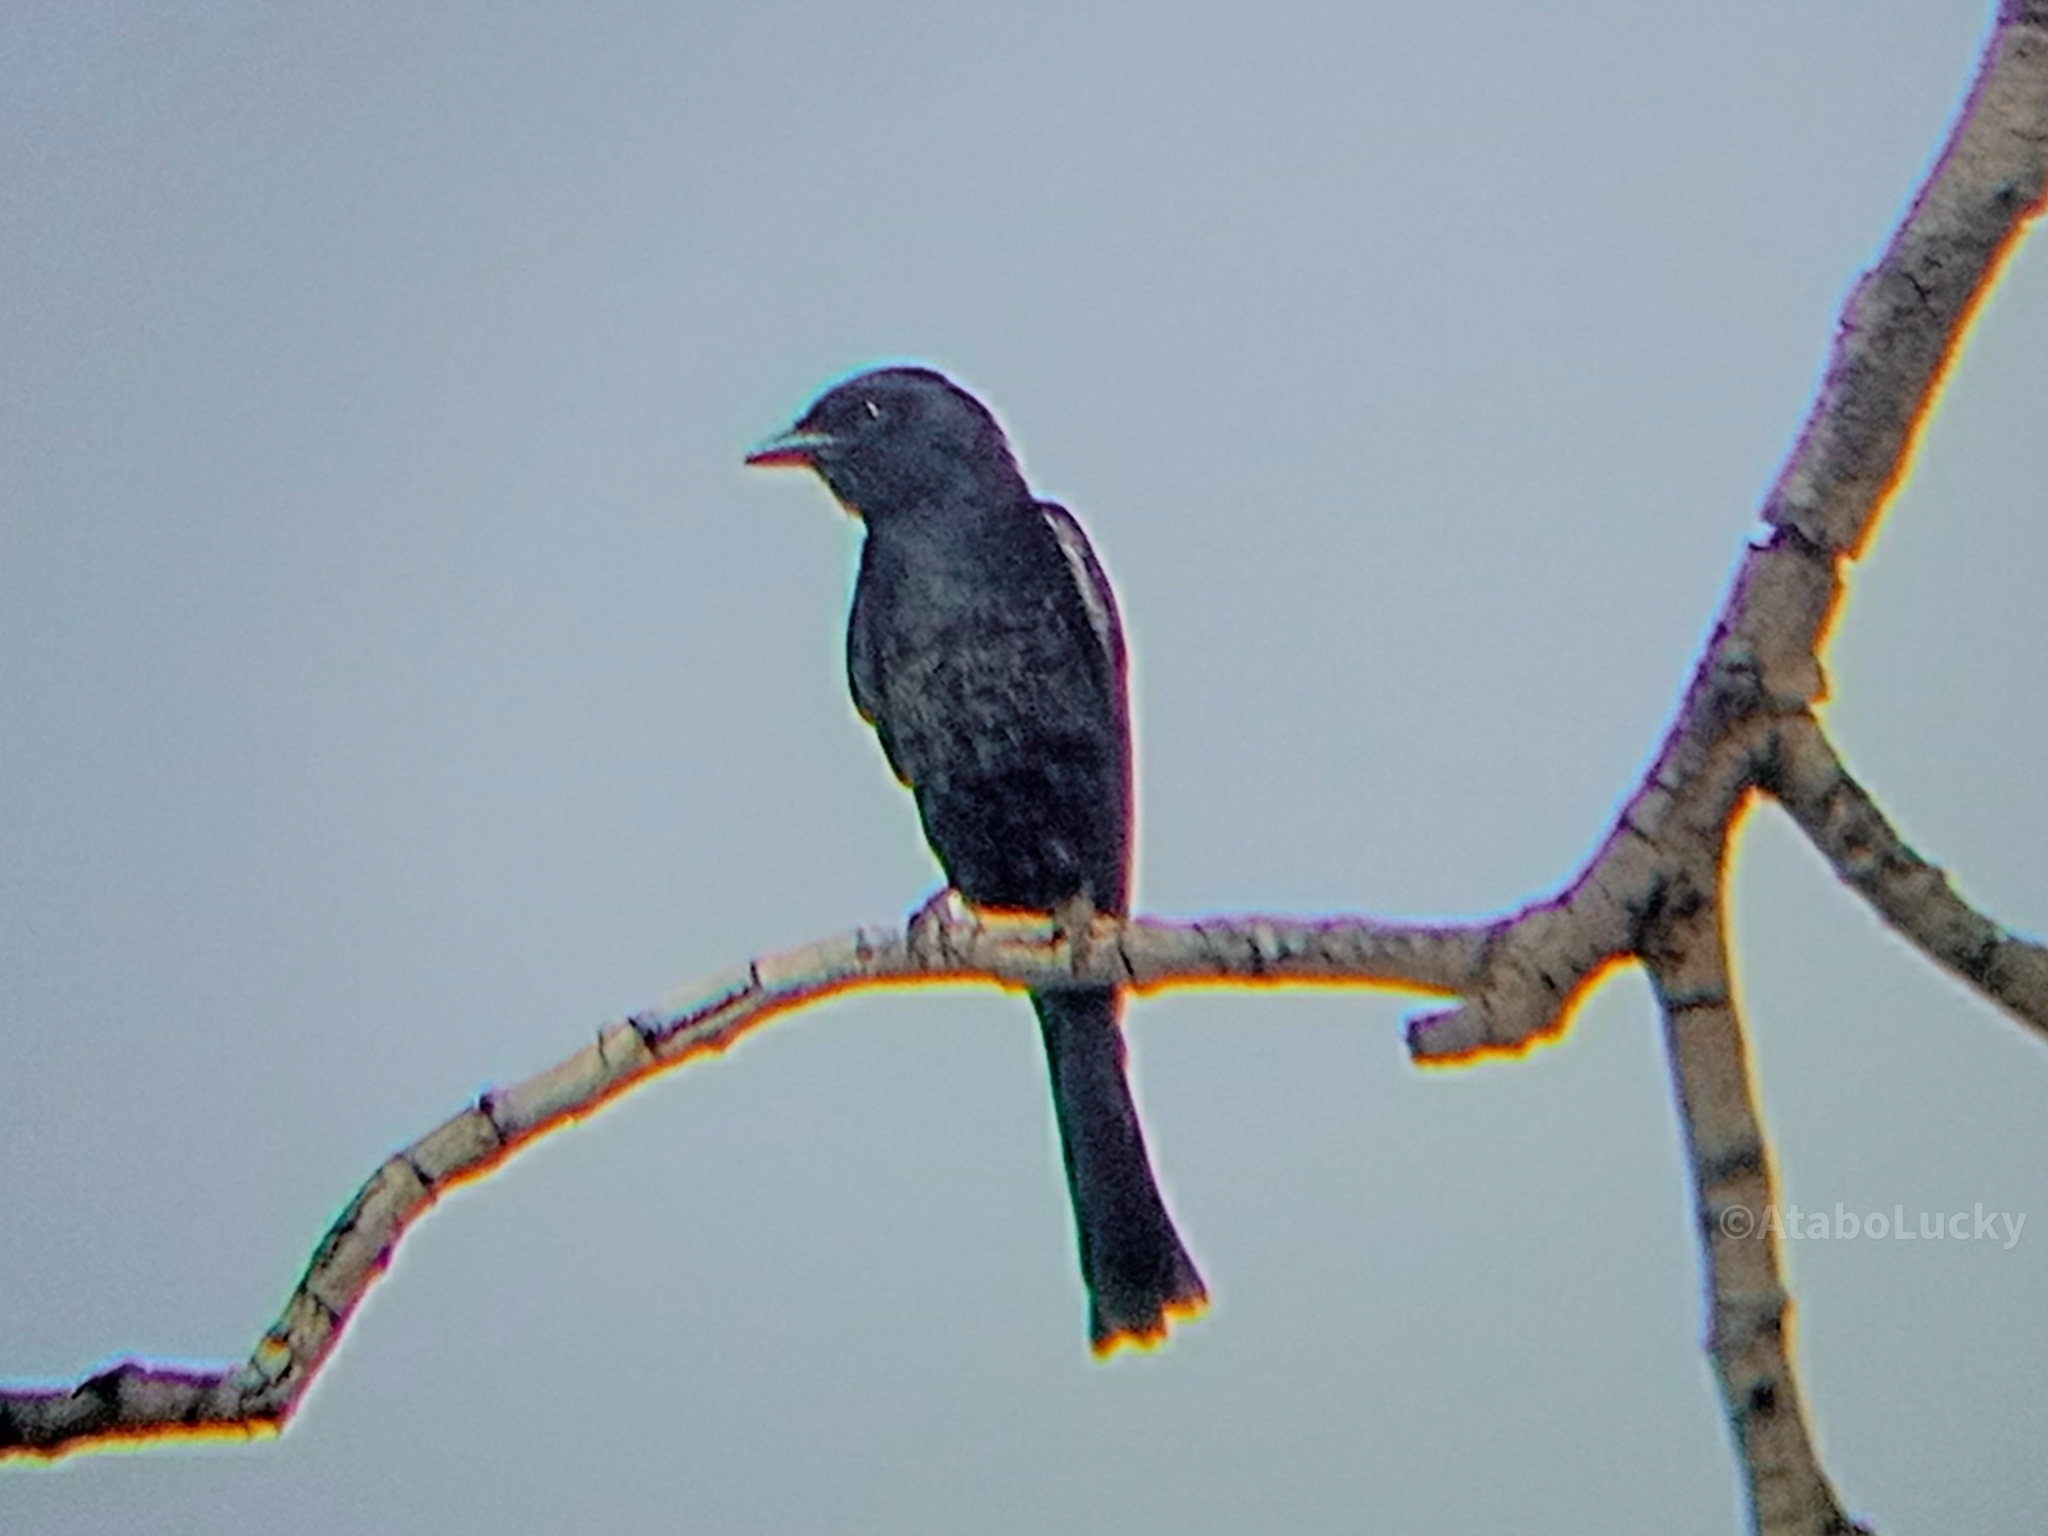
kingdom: Animalia
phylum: Chordata
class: Aves
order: Passeriformes
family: Muscicapidae
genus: Melaenornis
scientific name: Melaenornis edolioides
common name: Northern black flycatcher
